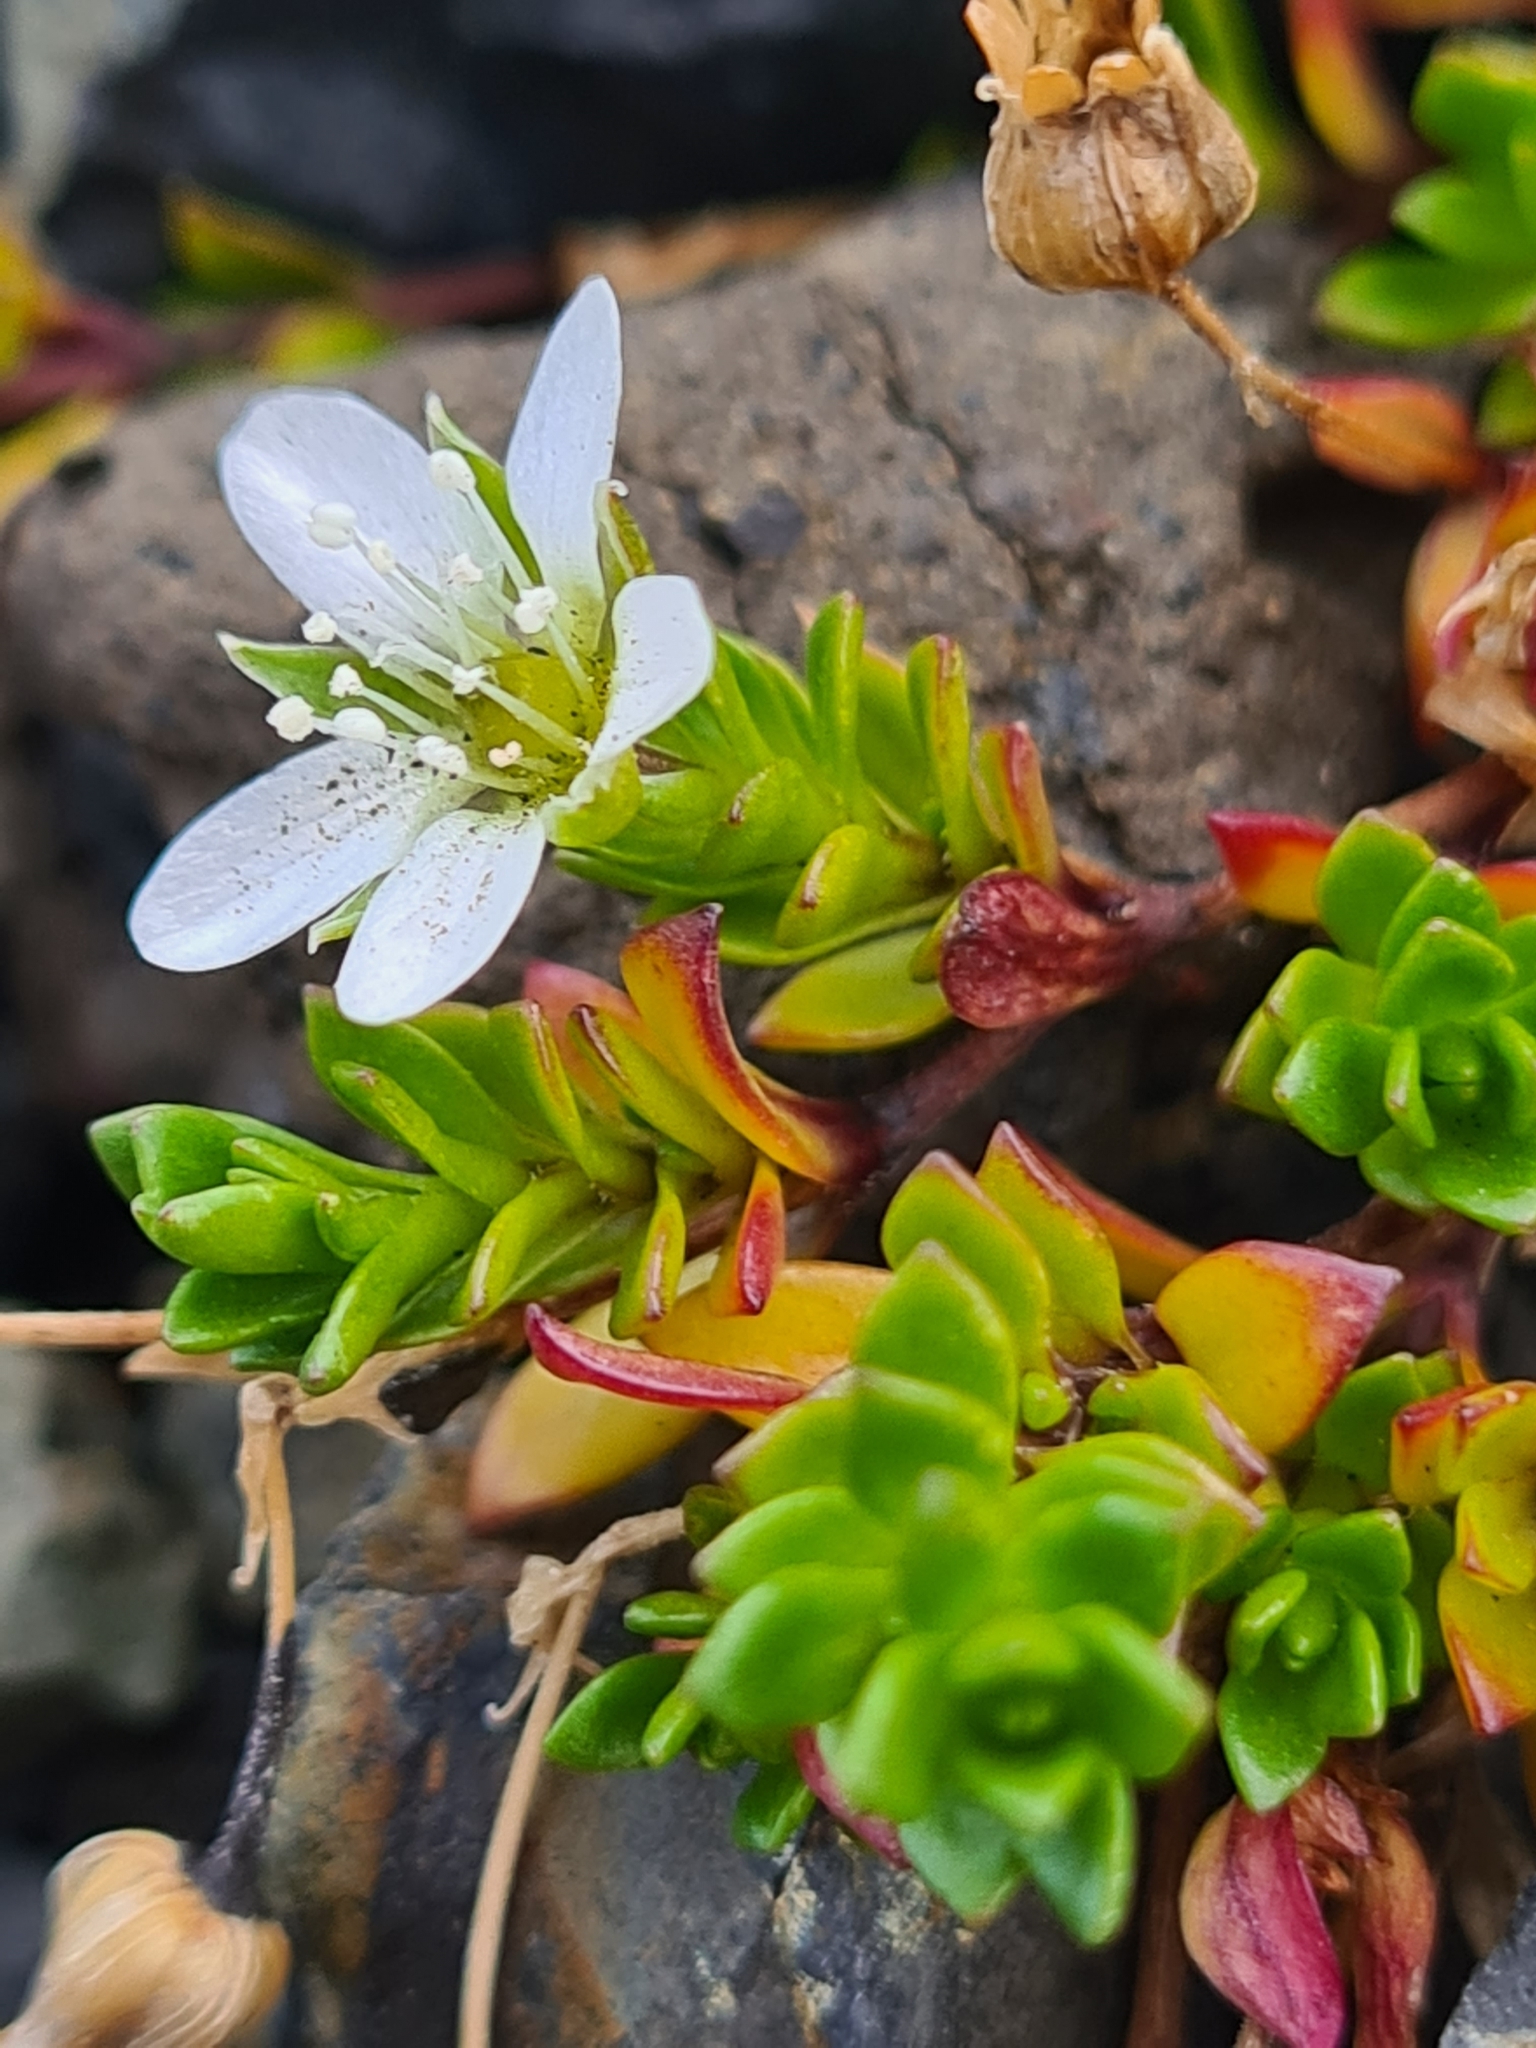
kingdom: Plantae
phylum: Tracheophyta
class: Magnoliopsida
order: Caryophyllales
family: Caryophyllaceae
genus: Arenaria
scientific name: Arenaria norvegica
